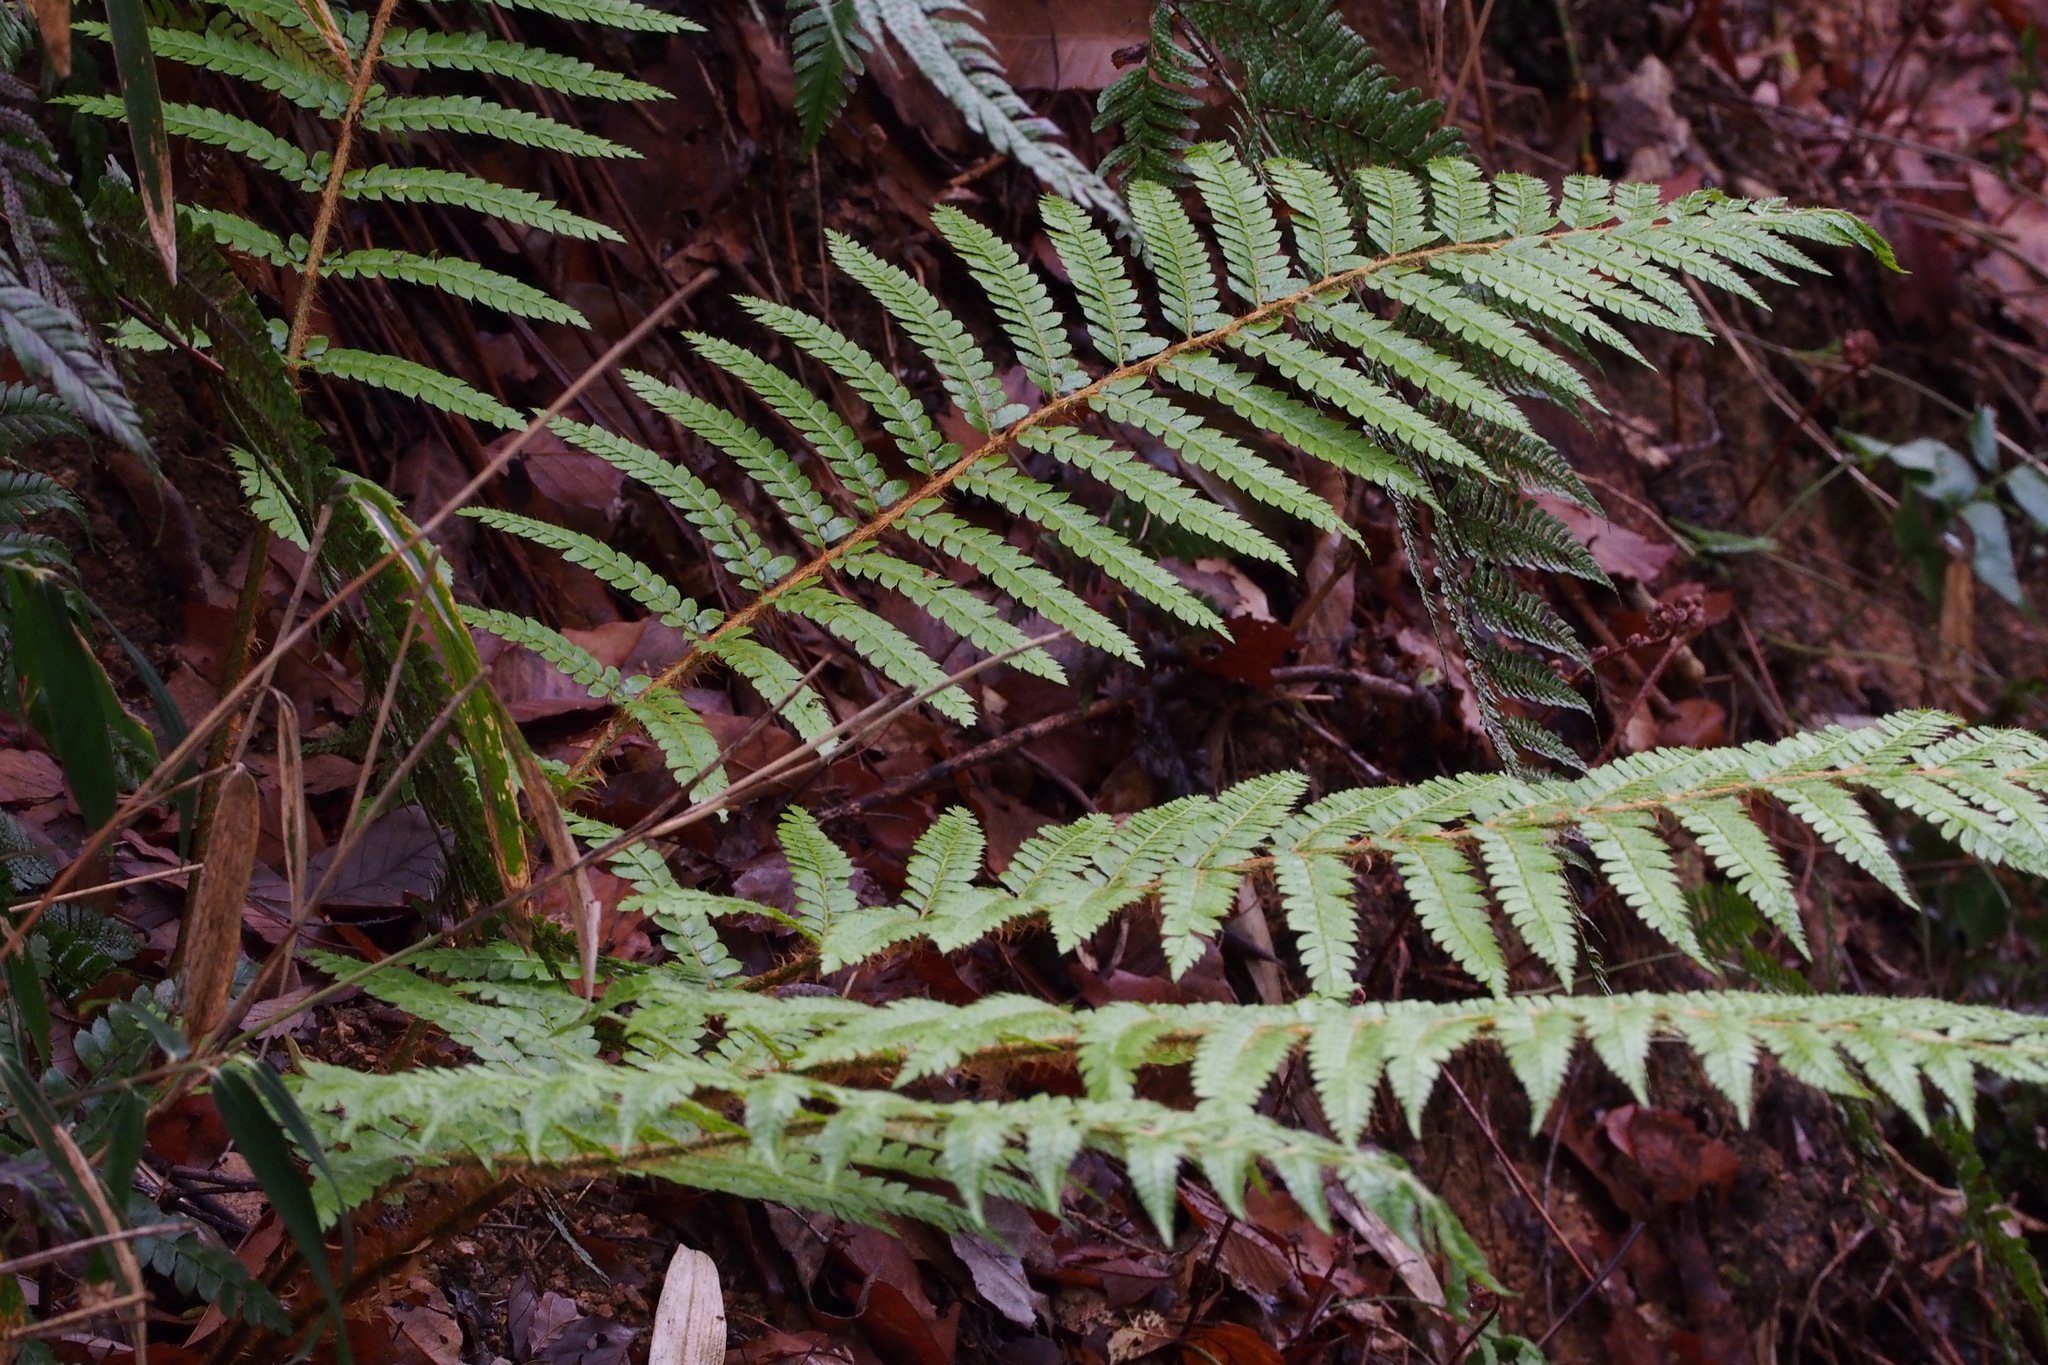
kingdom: Plantae
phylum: Tracheophyta
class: Polypodiopsida
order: Polypodiales
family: Dryopteridaceae
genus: Polystichum
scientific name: Polystichum luctuosum
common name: Korean rockfern
